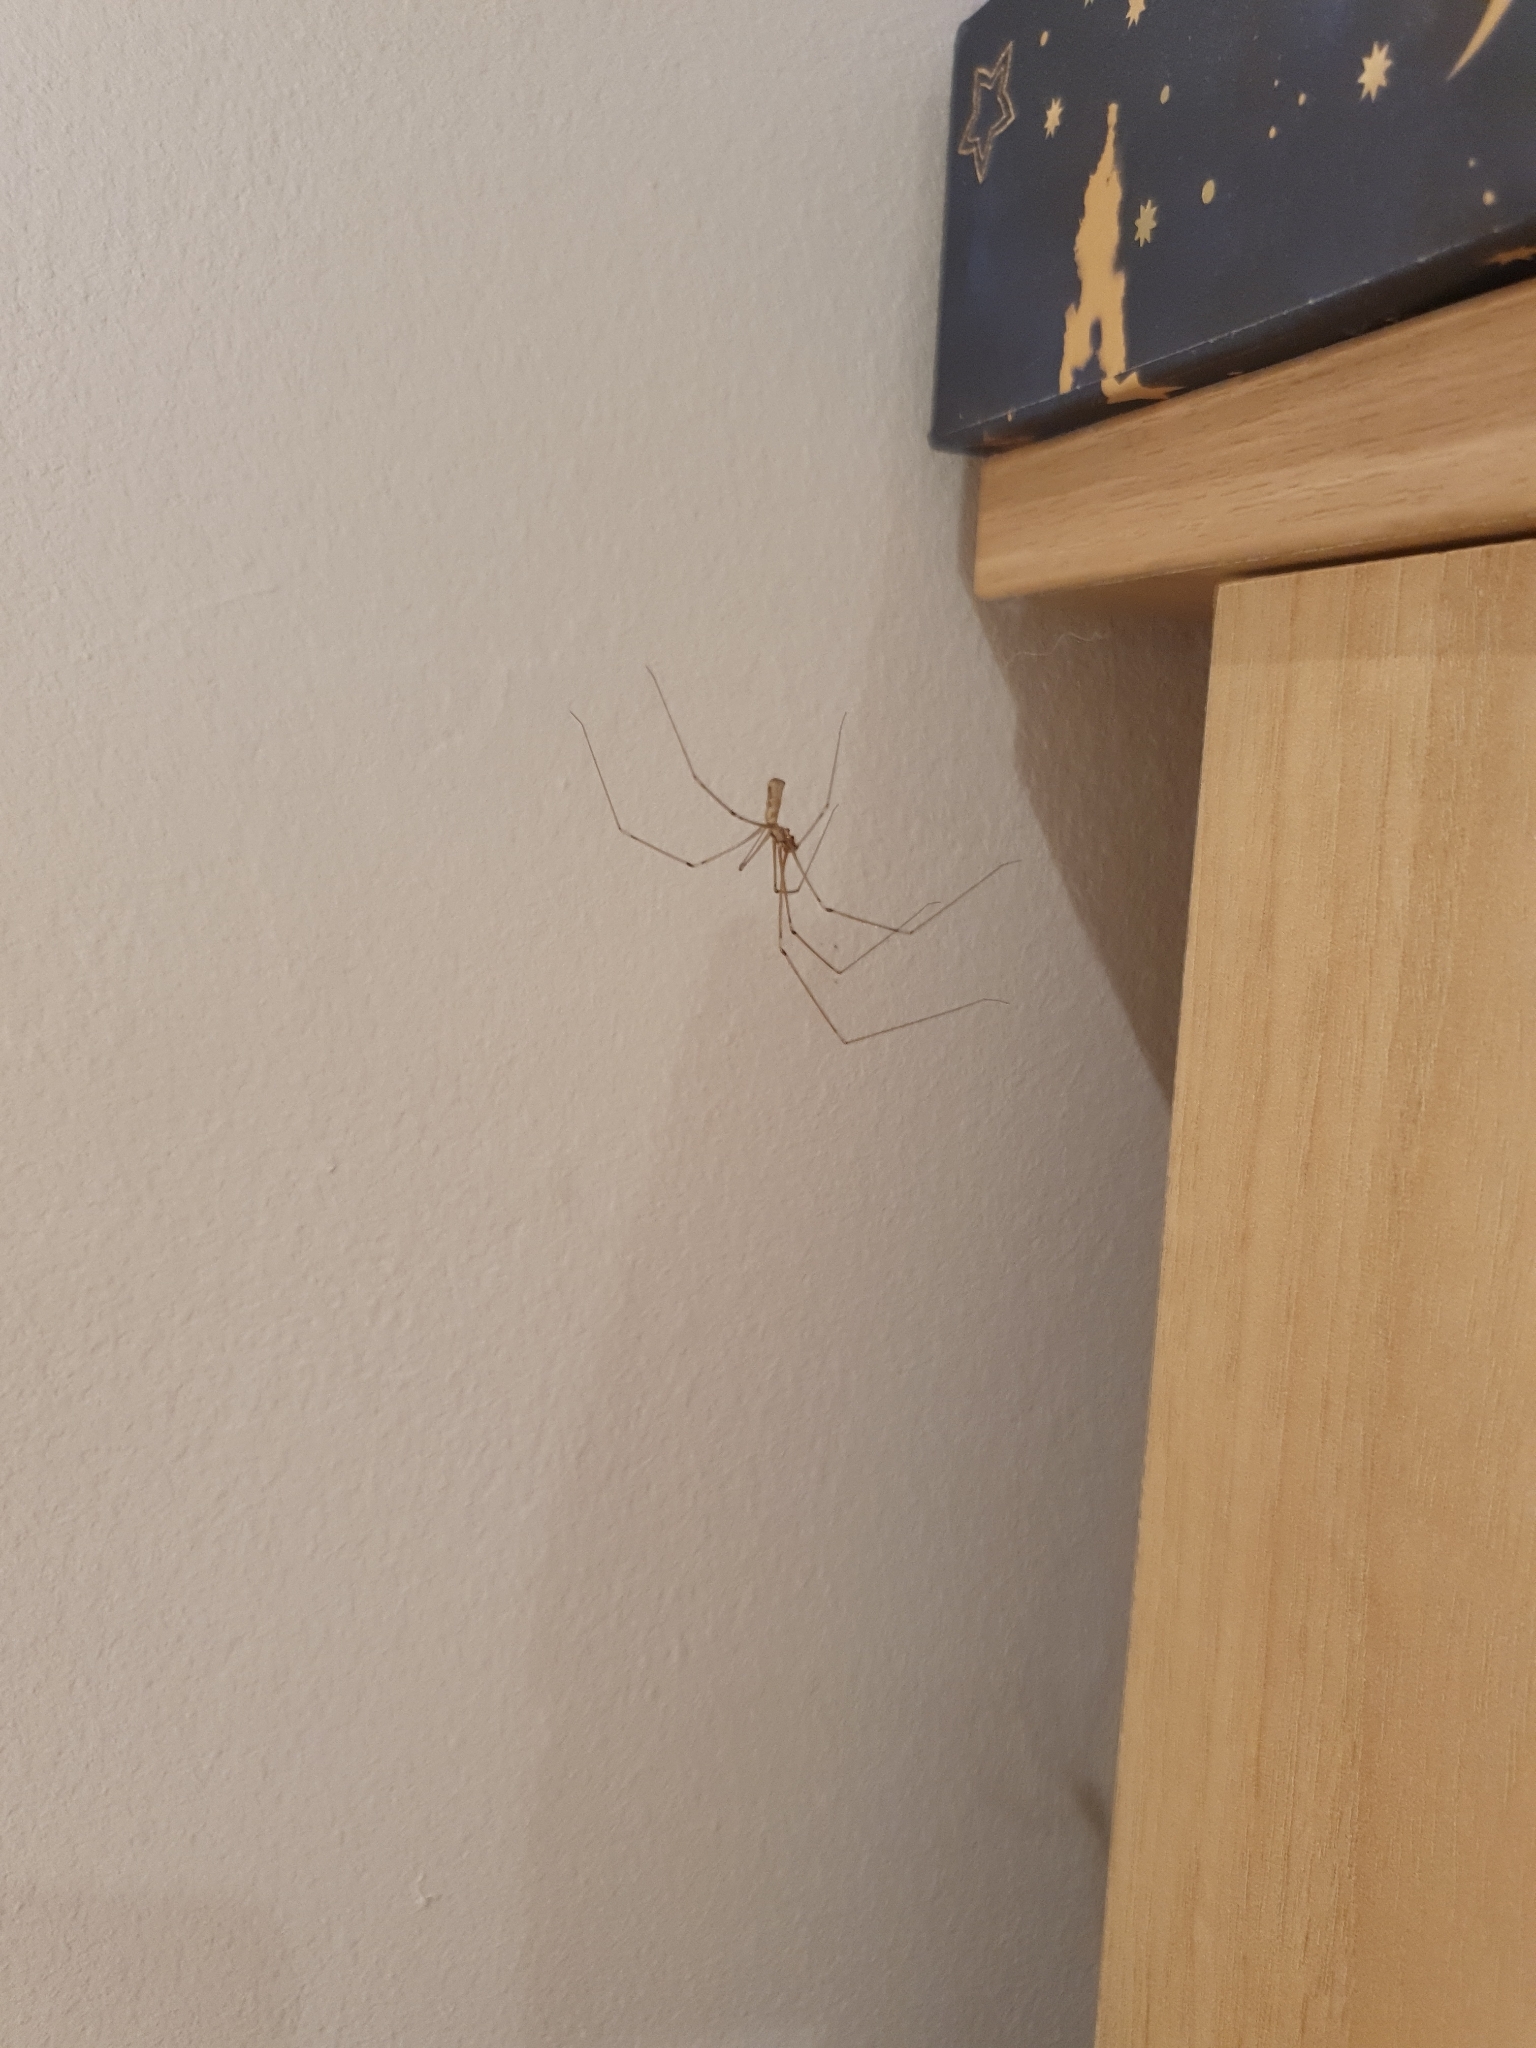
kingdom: Animalia
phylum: Arthropoda
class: Arachnida
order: Araneae
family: Pholcidae
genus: Pholcus
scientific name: Pholcus phalangioides
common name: Longbodied cellar spider
